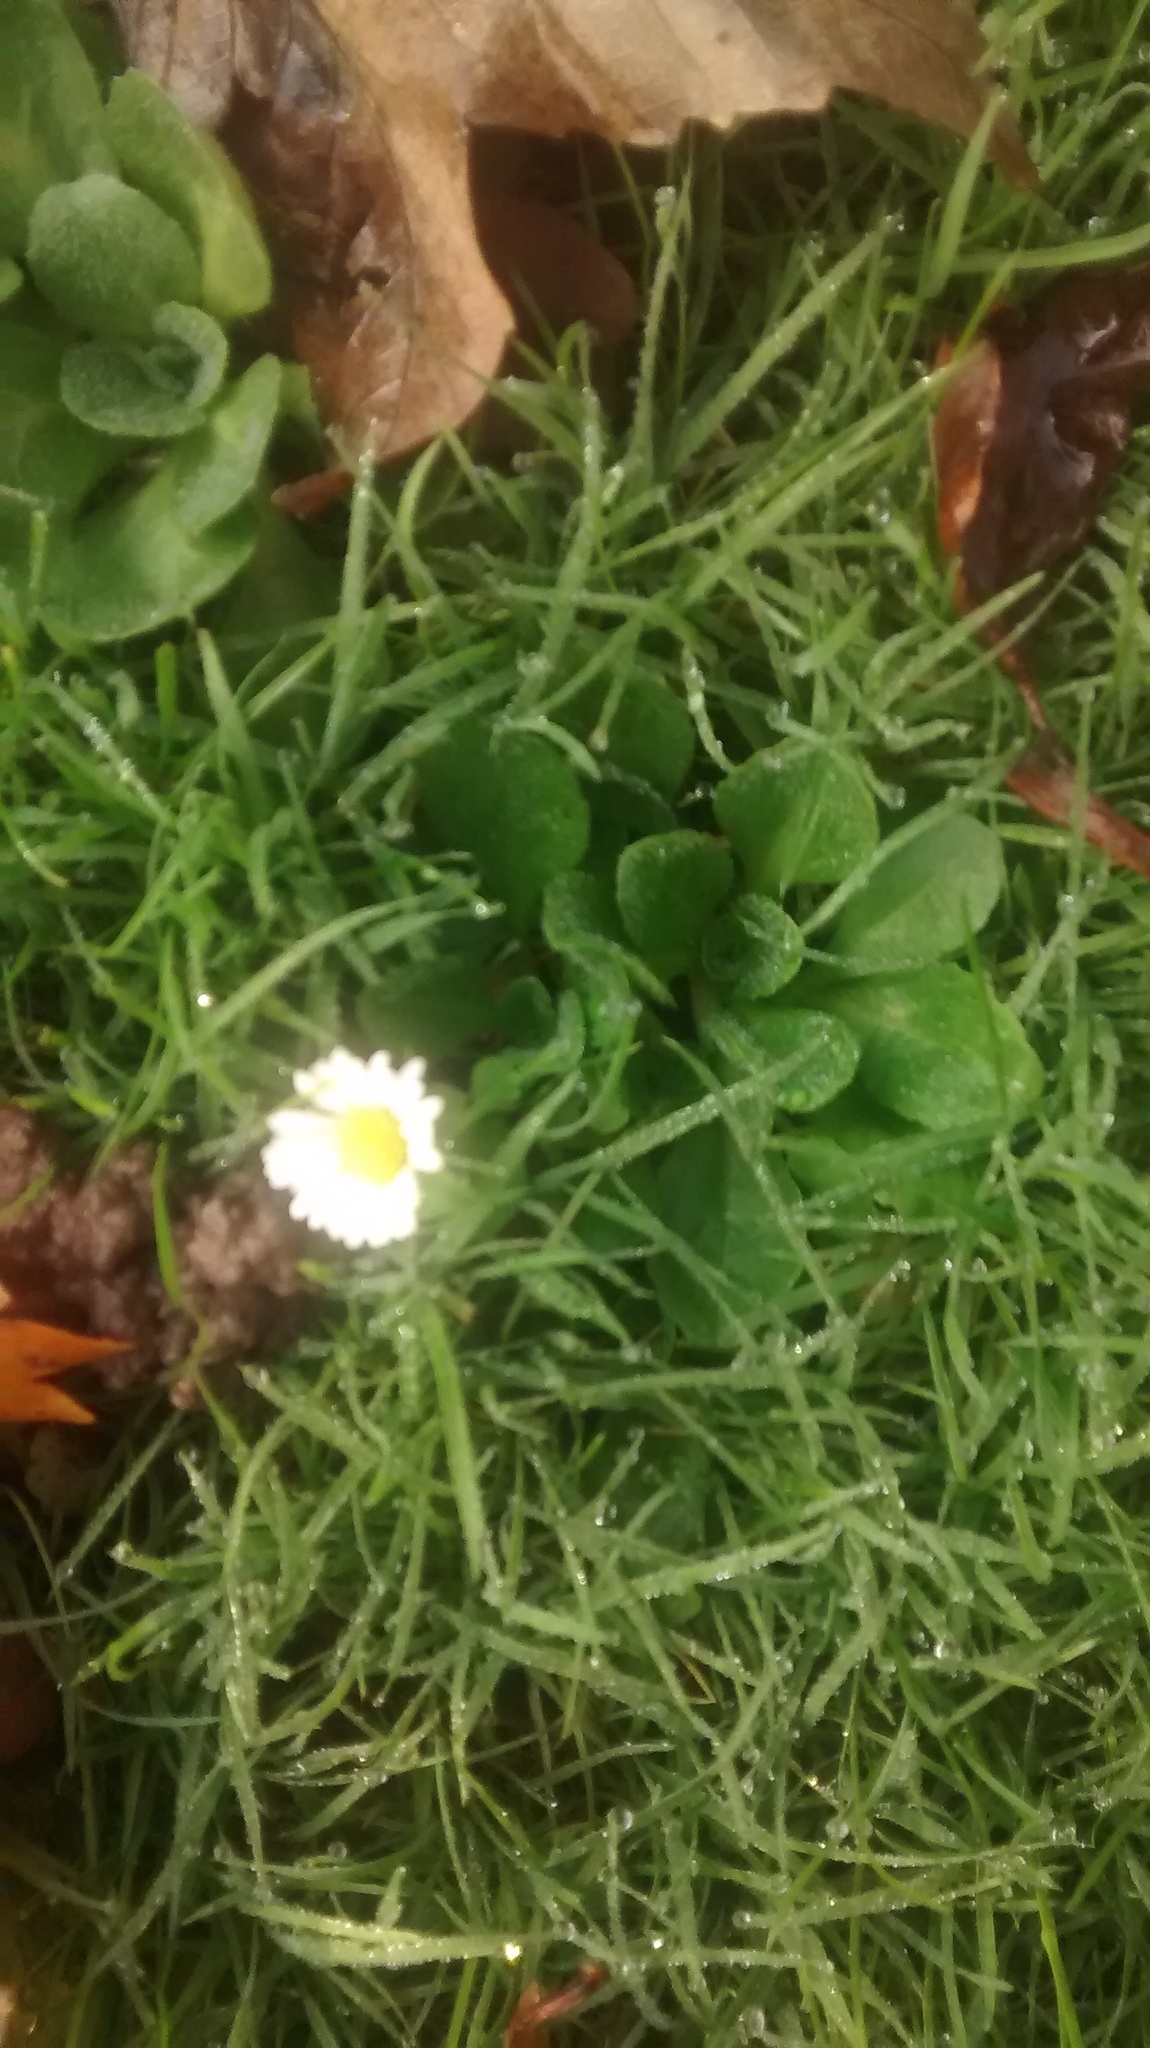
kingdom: Plantae
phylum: Tracheophyta
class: Magnoliopsida
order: Asterales
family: Asteraceae
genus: Bellis
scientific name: Bellis perennis
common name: Lawndaisy
